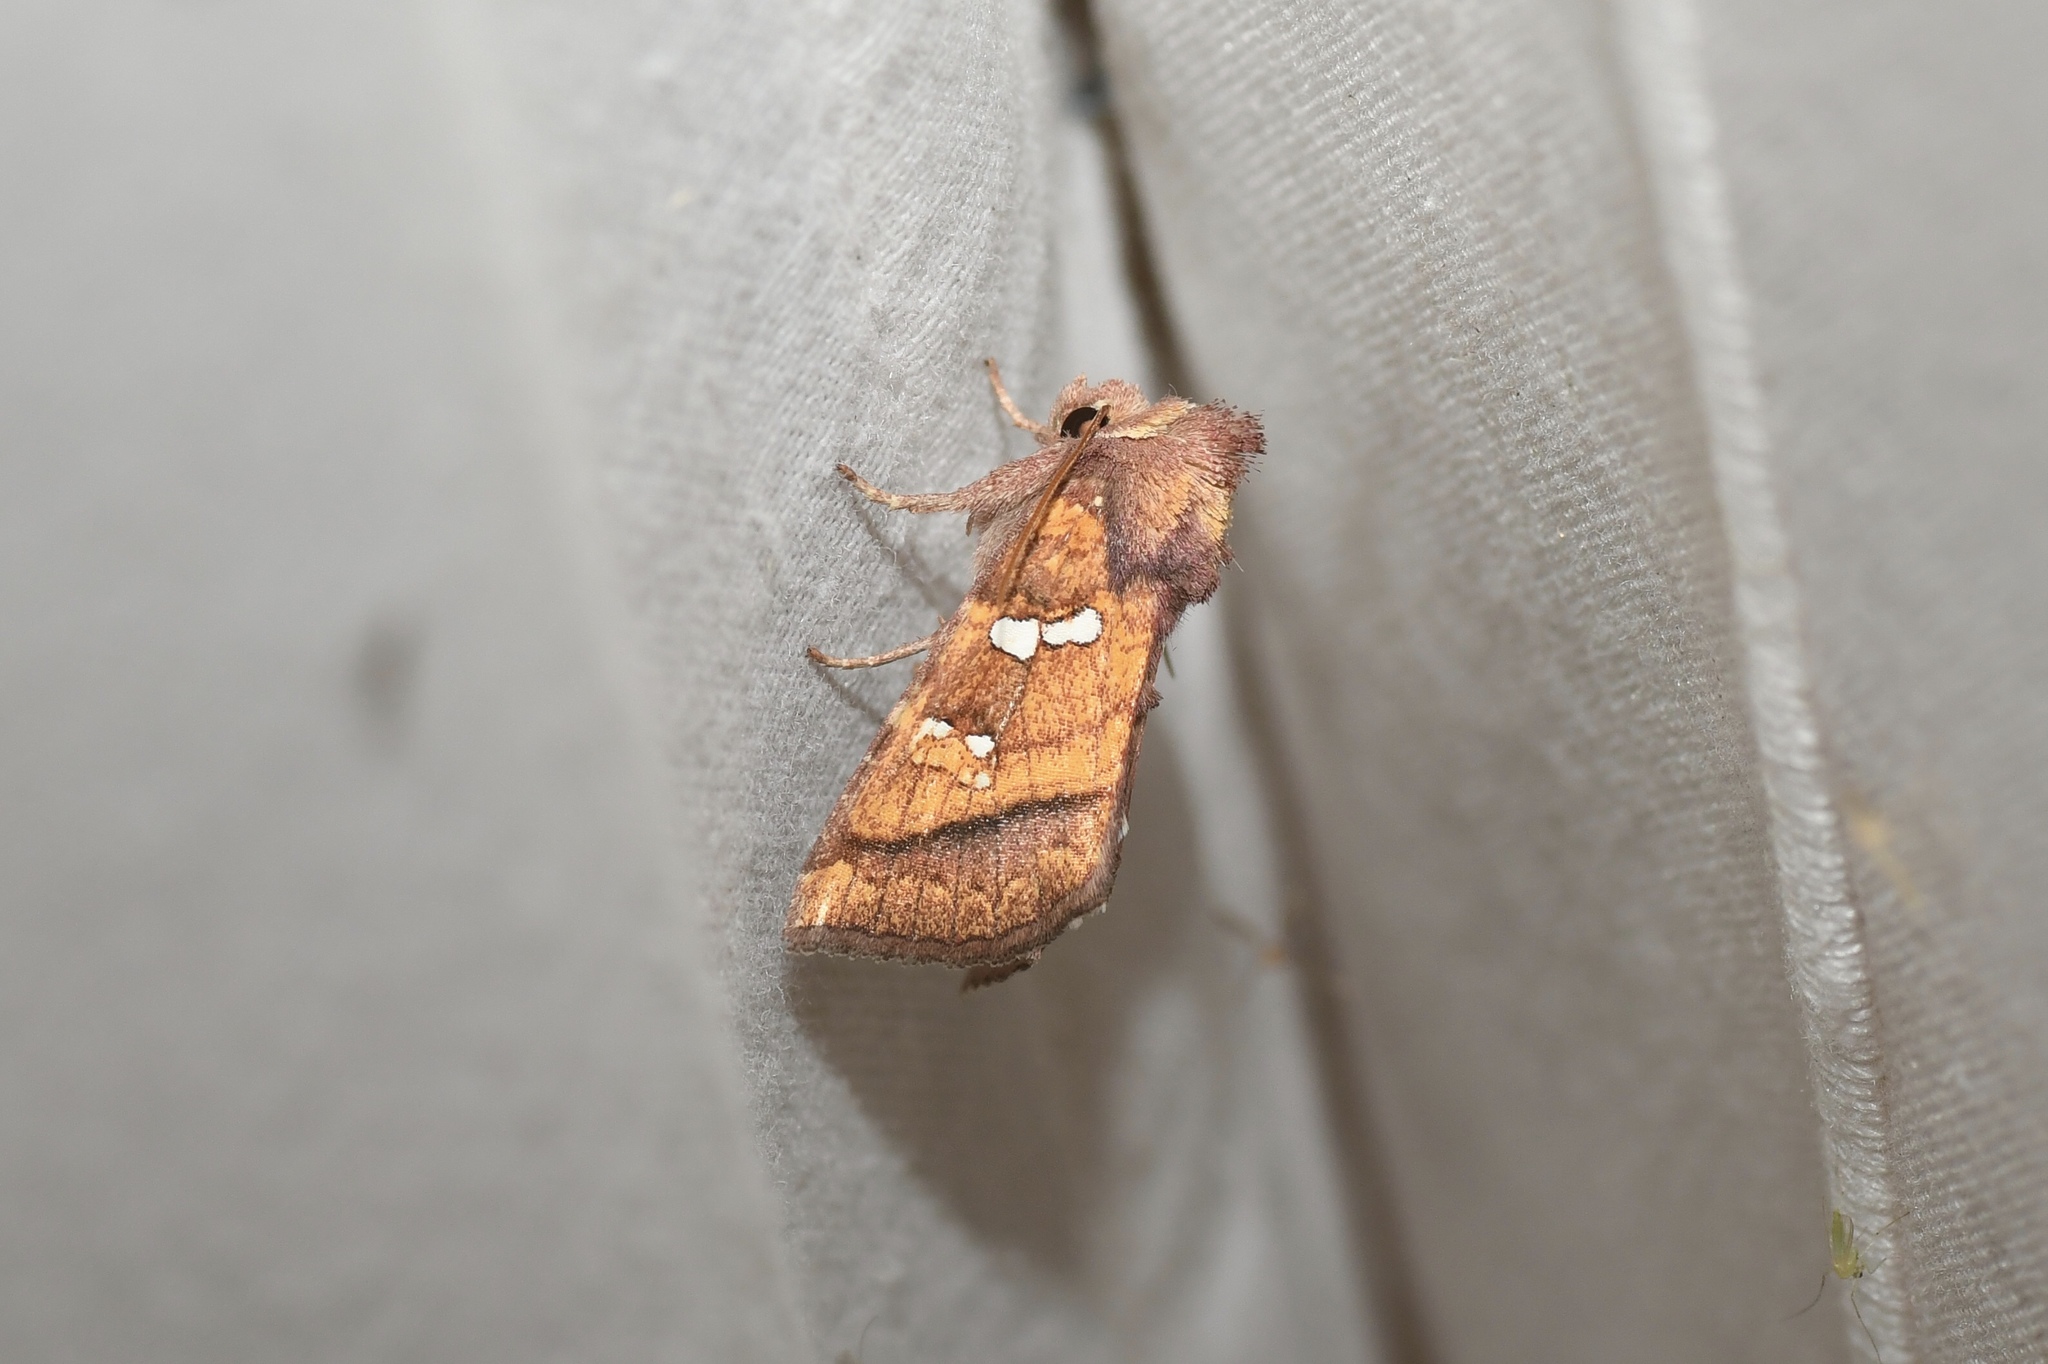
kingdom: Animalia
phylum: Arthropoda
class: Insecta
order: Lepidoptera
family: Noctuidae
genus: Papaipema
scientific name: Papaipema pterisii
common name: Bracken borer moth
